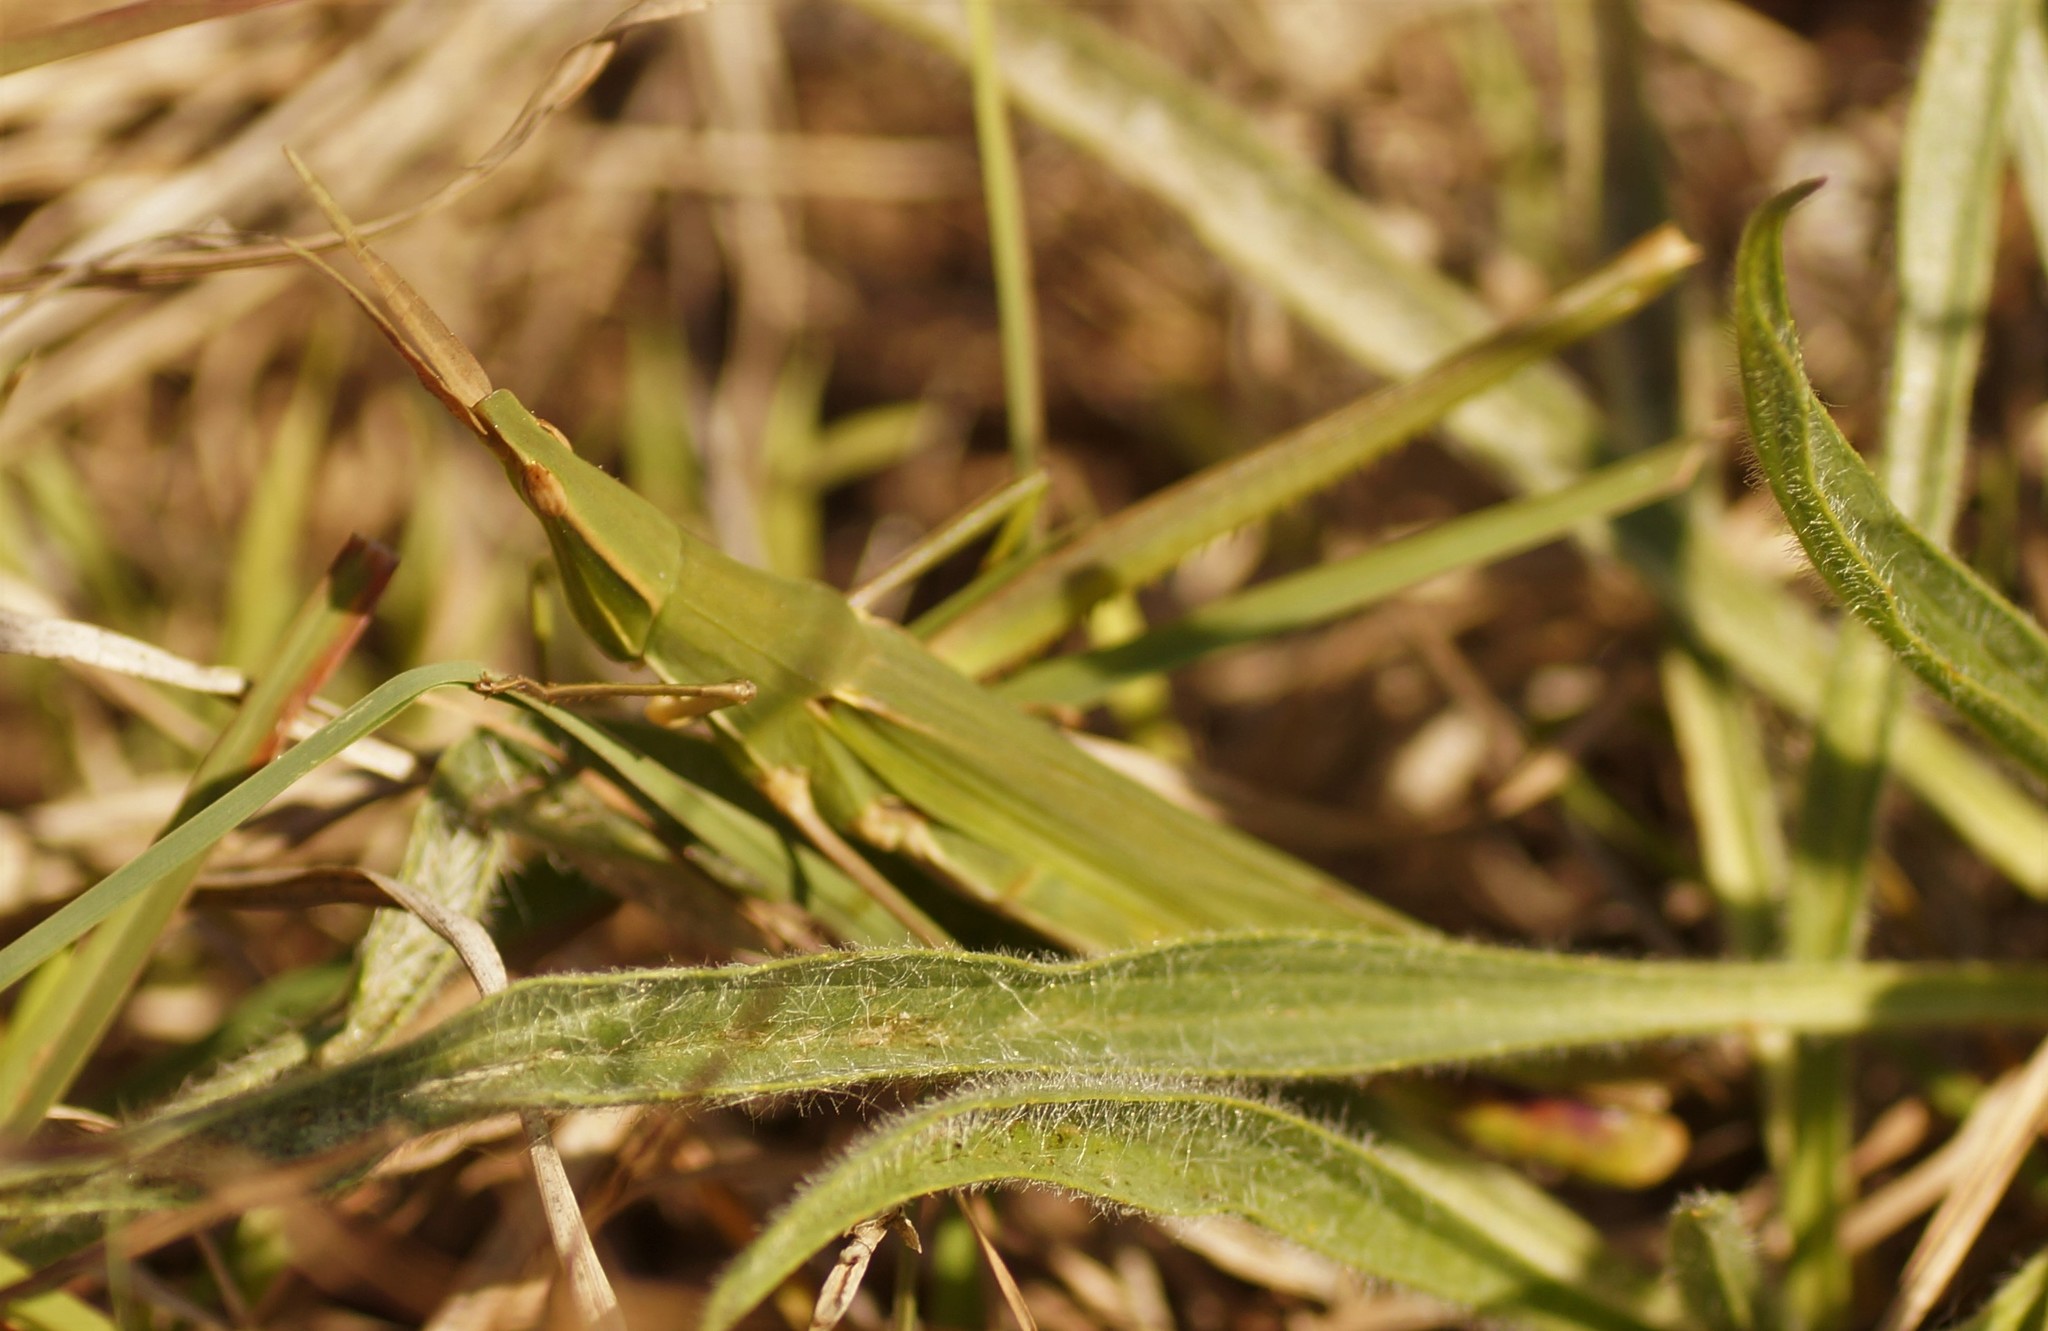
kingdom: Animalia
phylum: Arthropoda
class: Insecta
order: Orthoptera
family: Acrididae
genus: Acrida
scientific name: Acrida conica
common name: Giant green slantface
